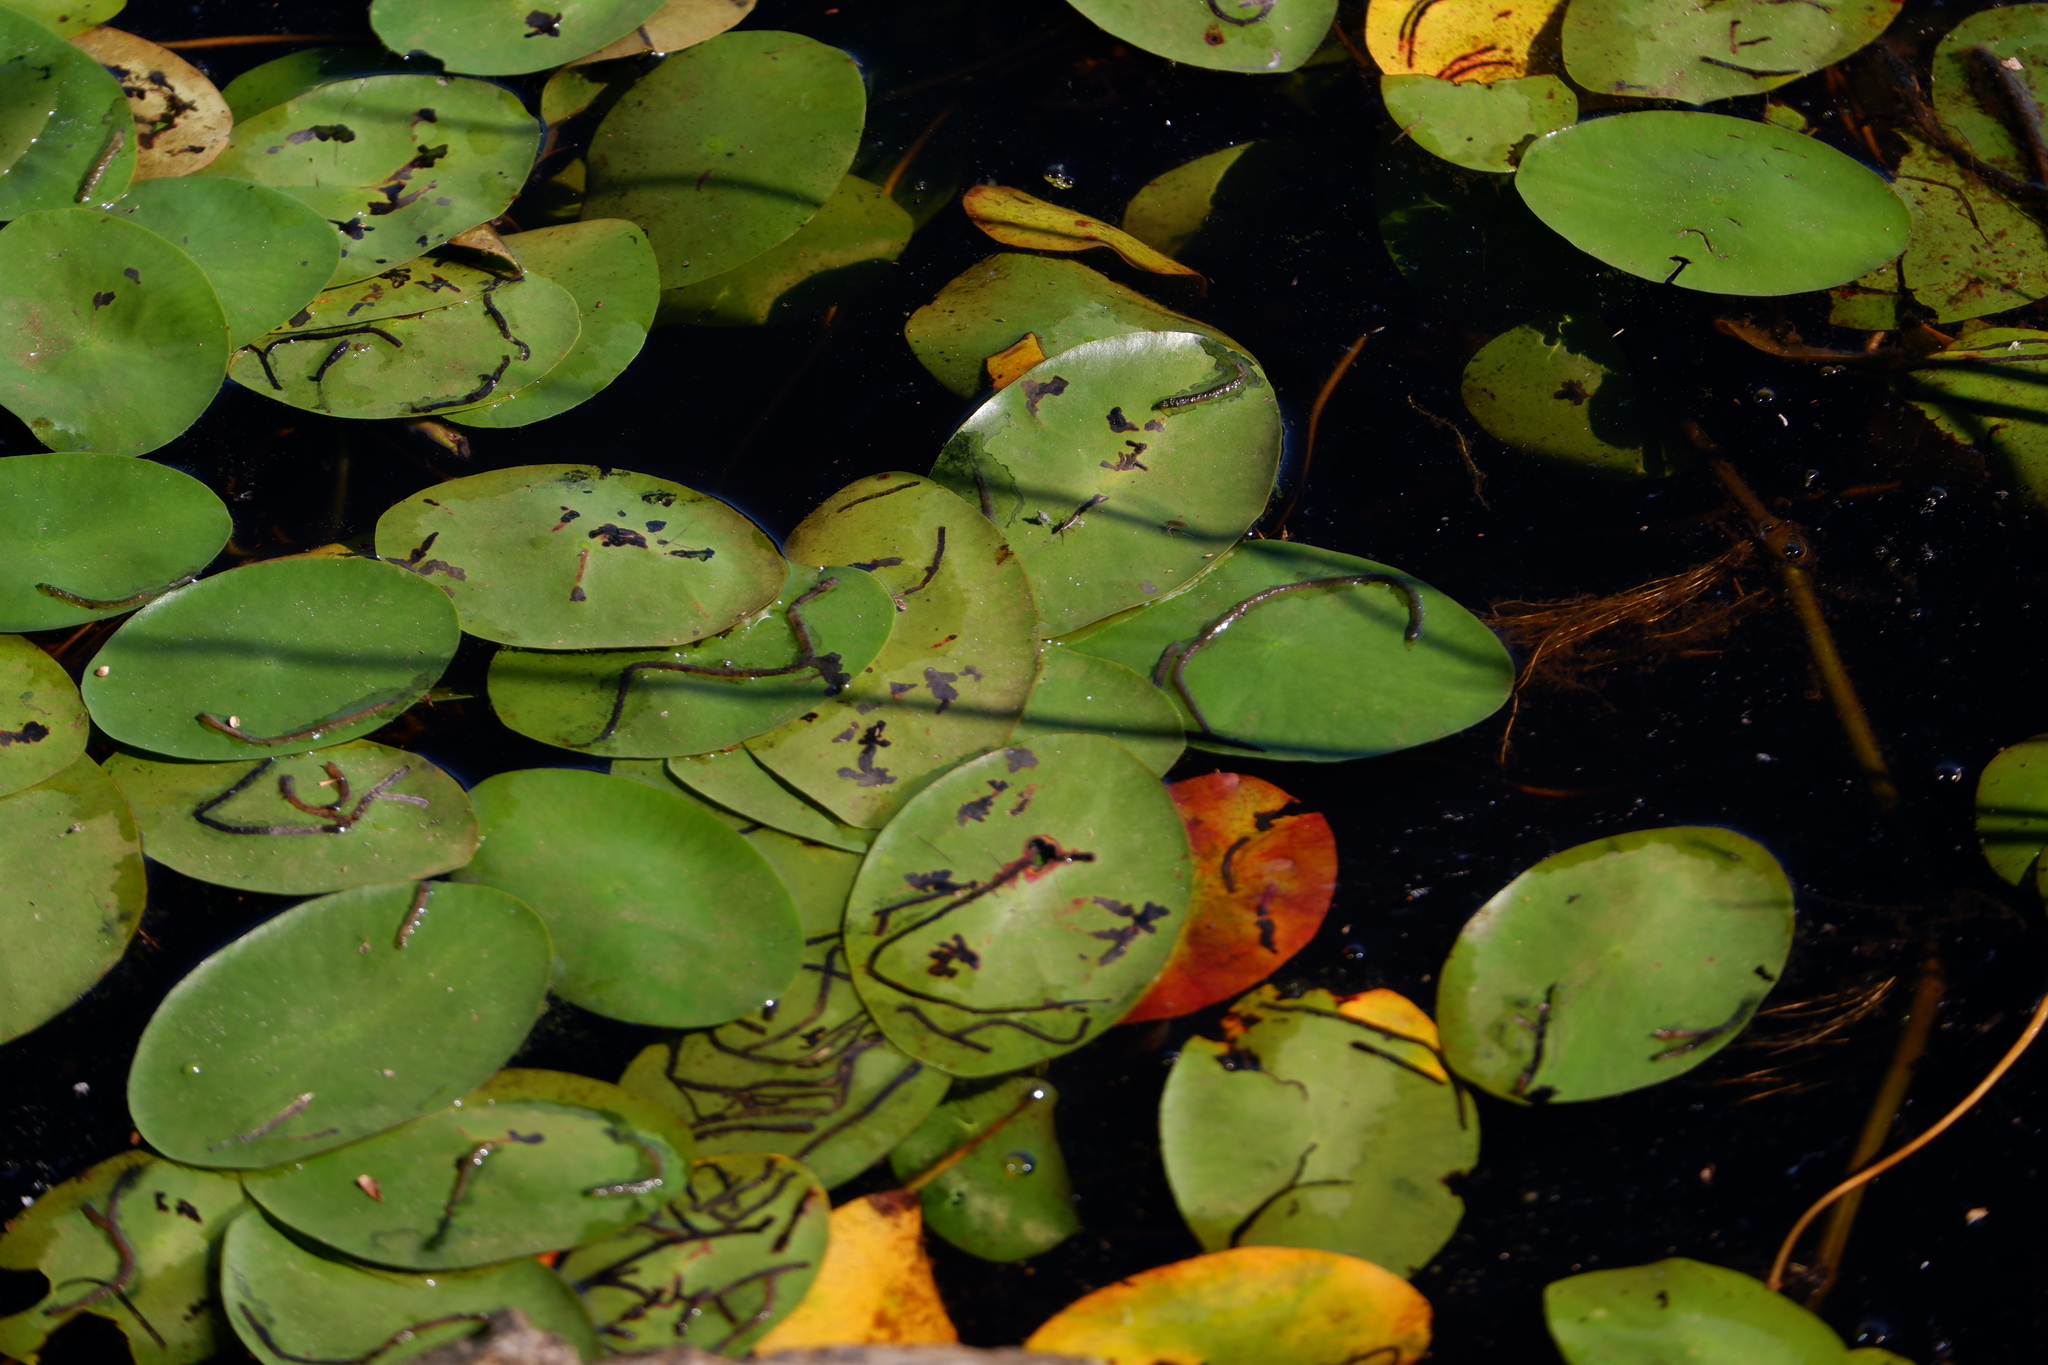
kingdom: Plantae
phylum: Tracheophyta
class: Magnoliopsida
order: Nymphaeales
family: Cabombaceae
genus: Brasenia
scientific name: Brasenia schreberi
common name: Water-shield
